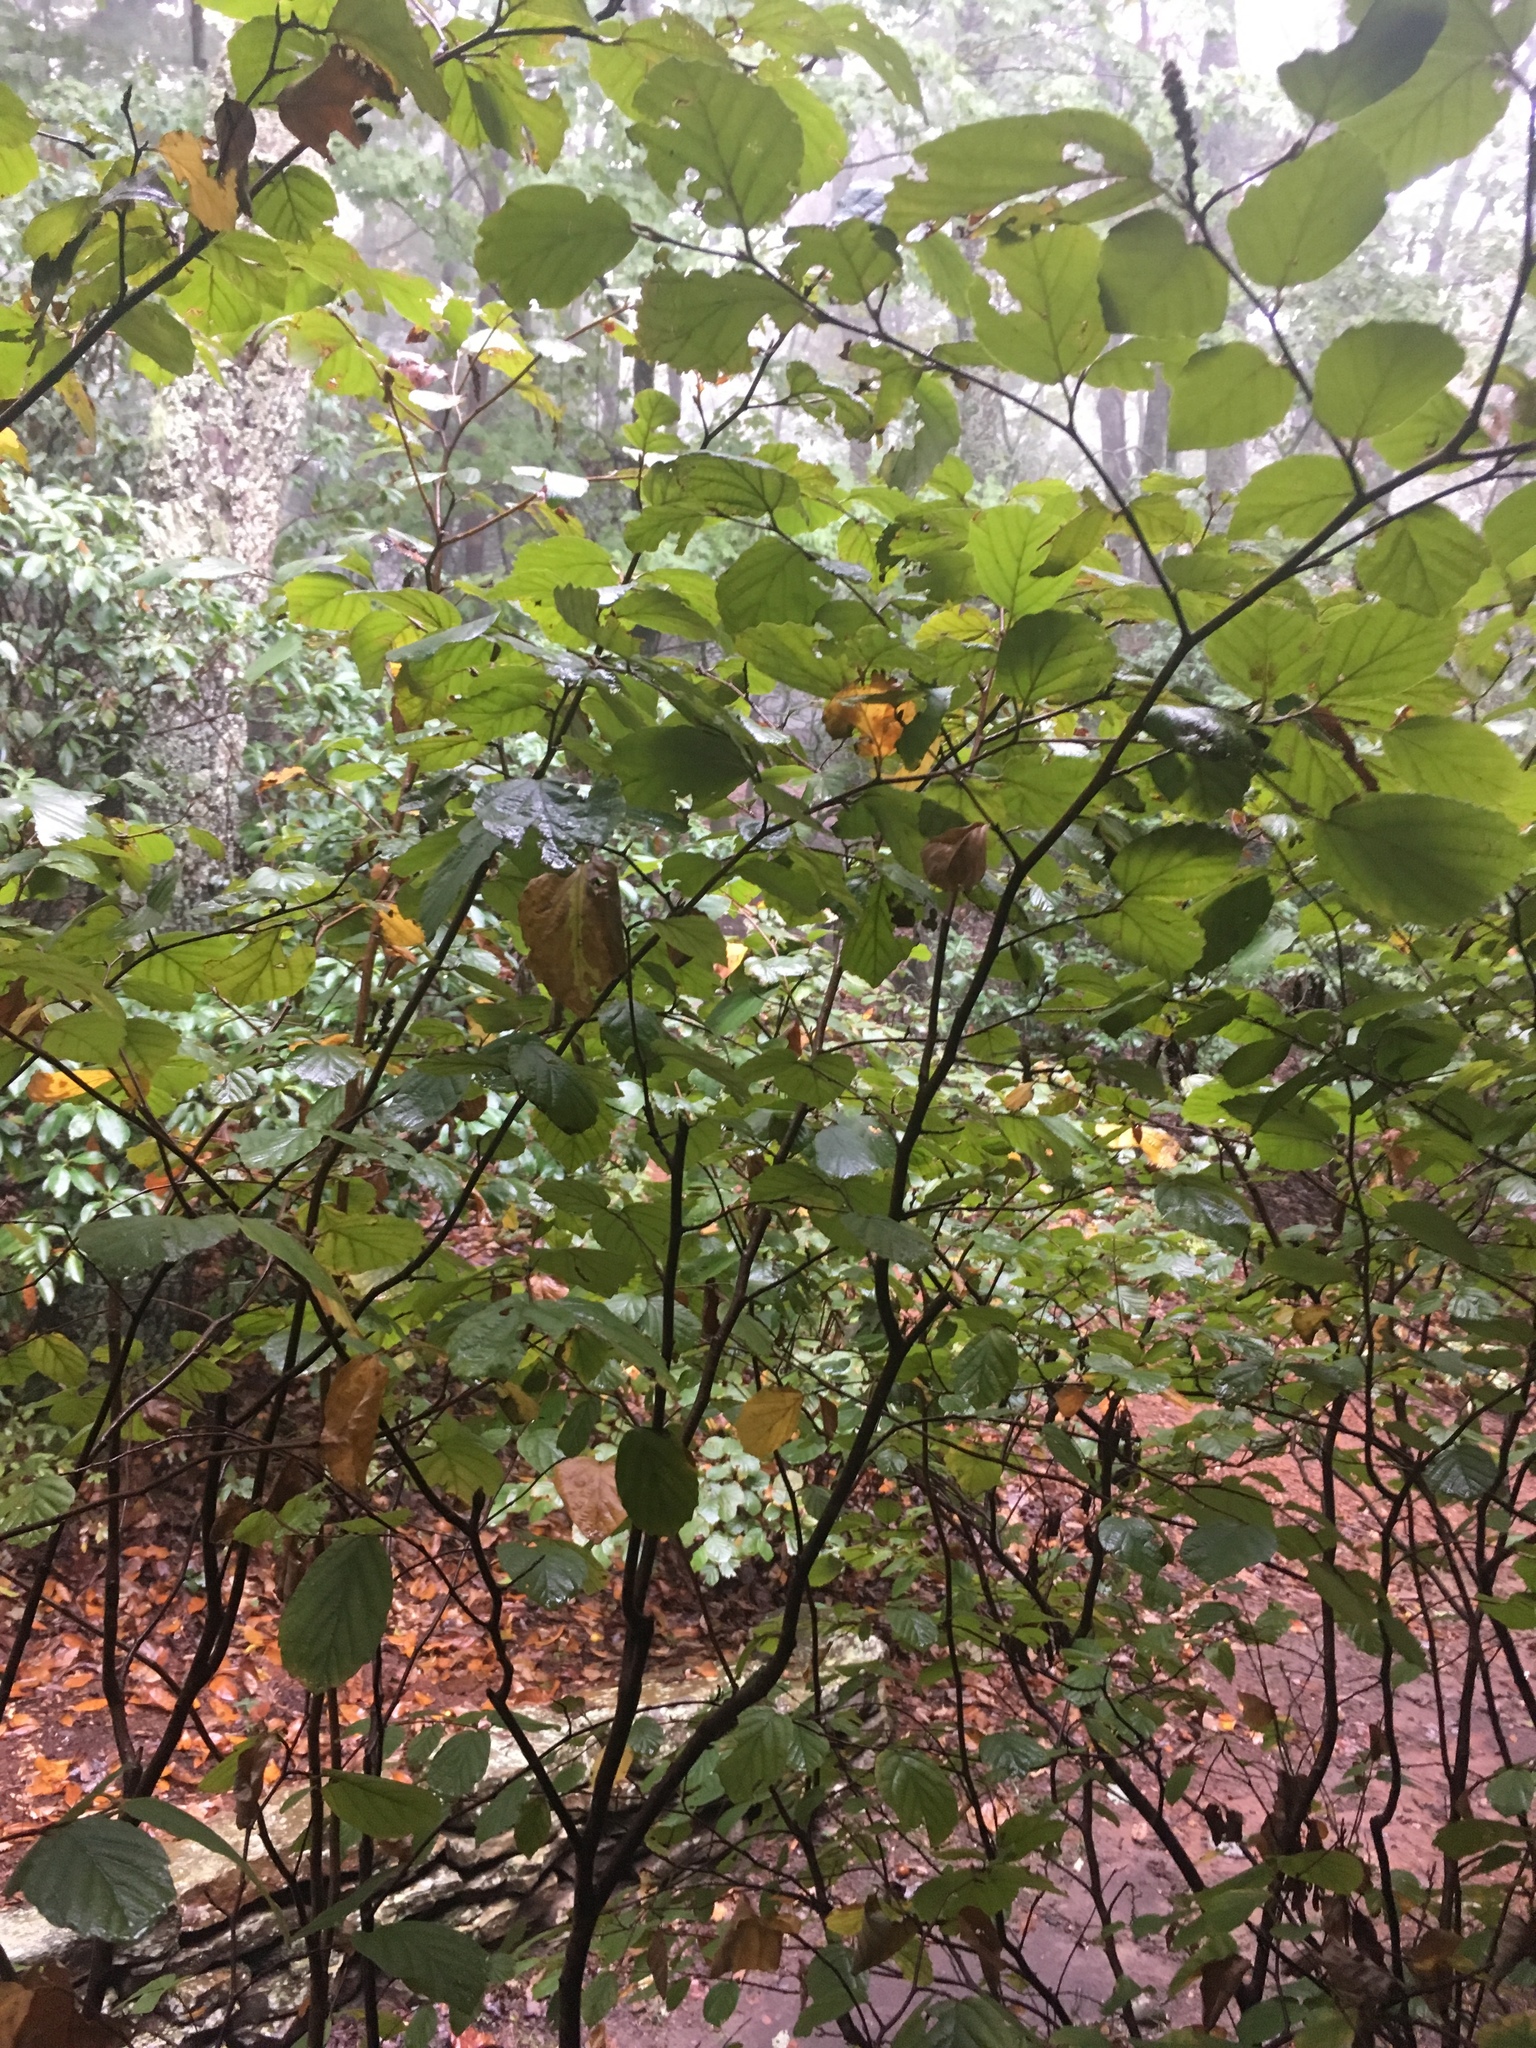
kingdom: Plantae
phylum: Tracheophyta
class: Magnoliopsida
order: Saxifragales
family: Hamamelidaceae
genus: Hamamelis
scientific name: Hamamelis virginiana
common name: Witch-hazel
